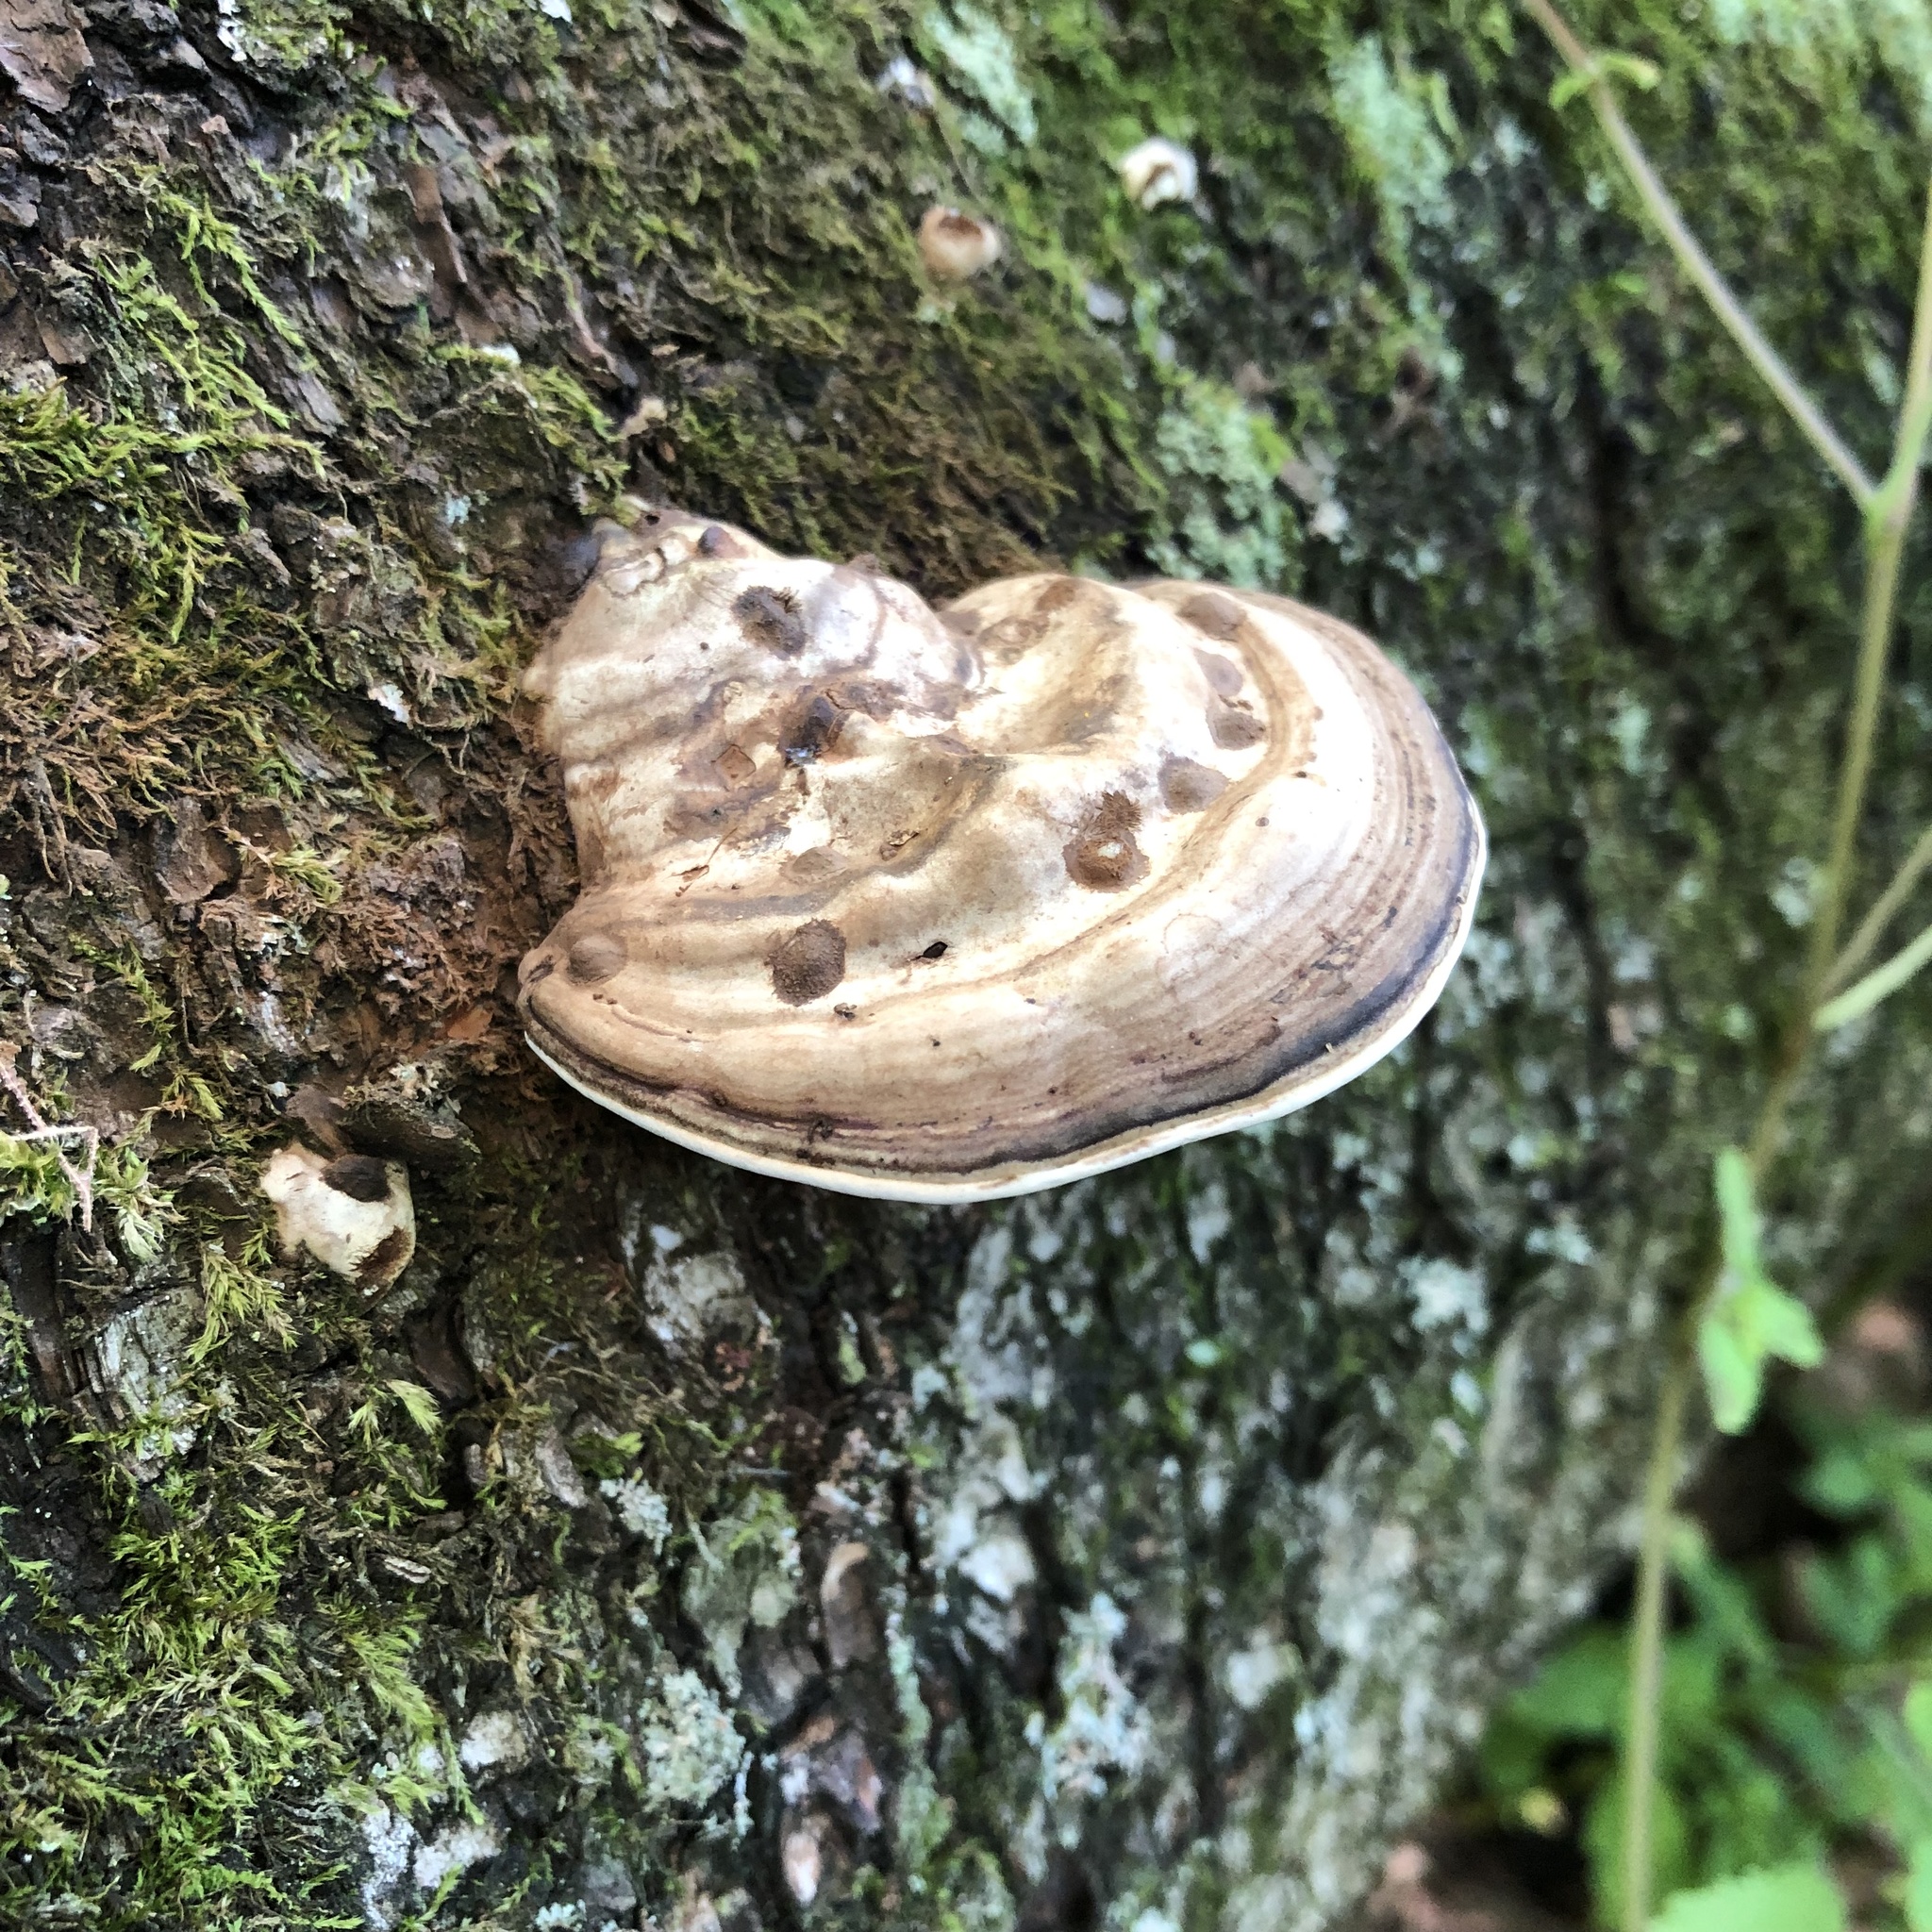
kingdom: Fungi
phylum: Basidiomycota
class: Agaricomycetes
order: Polyporales
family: Polyporaceae
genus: Fomes
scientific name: Fomes fomentarius
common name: Hoof fungus
